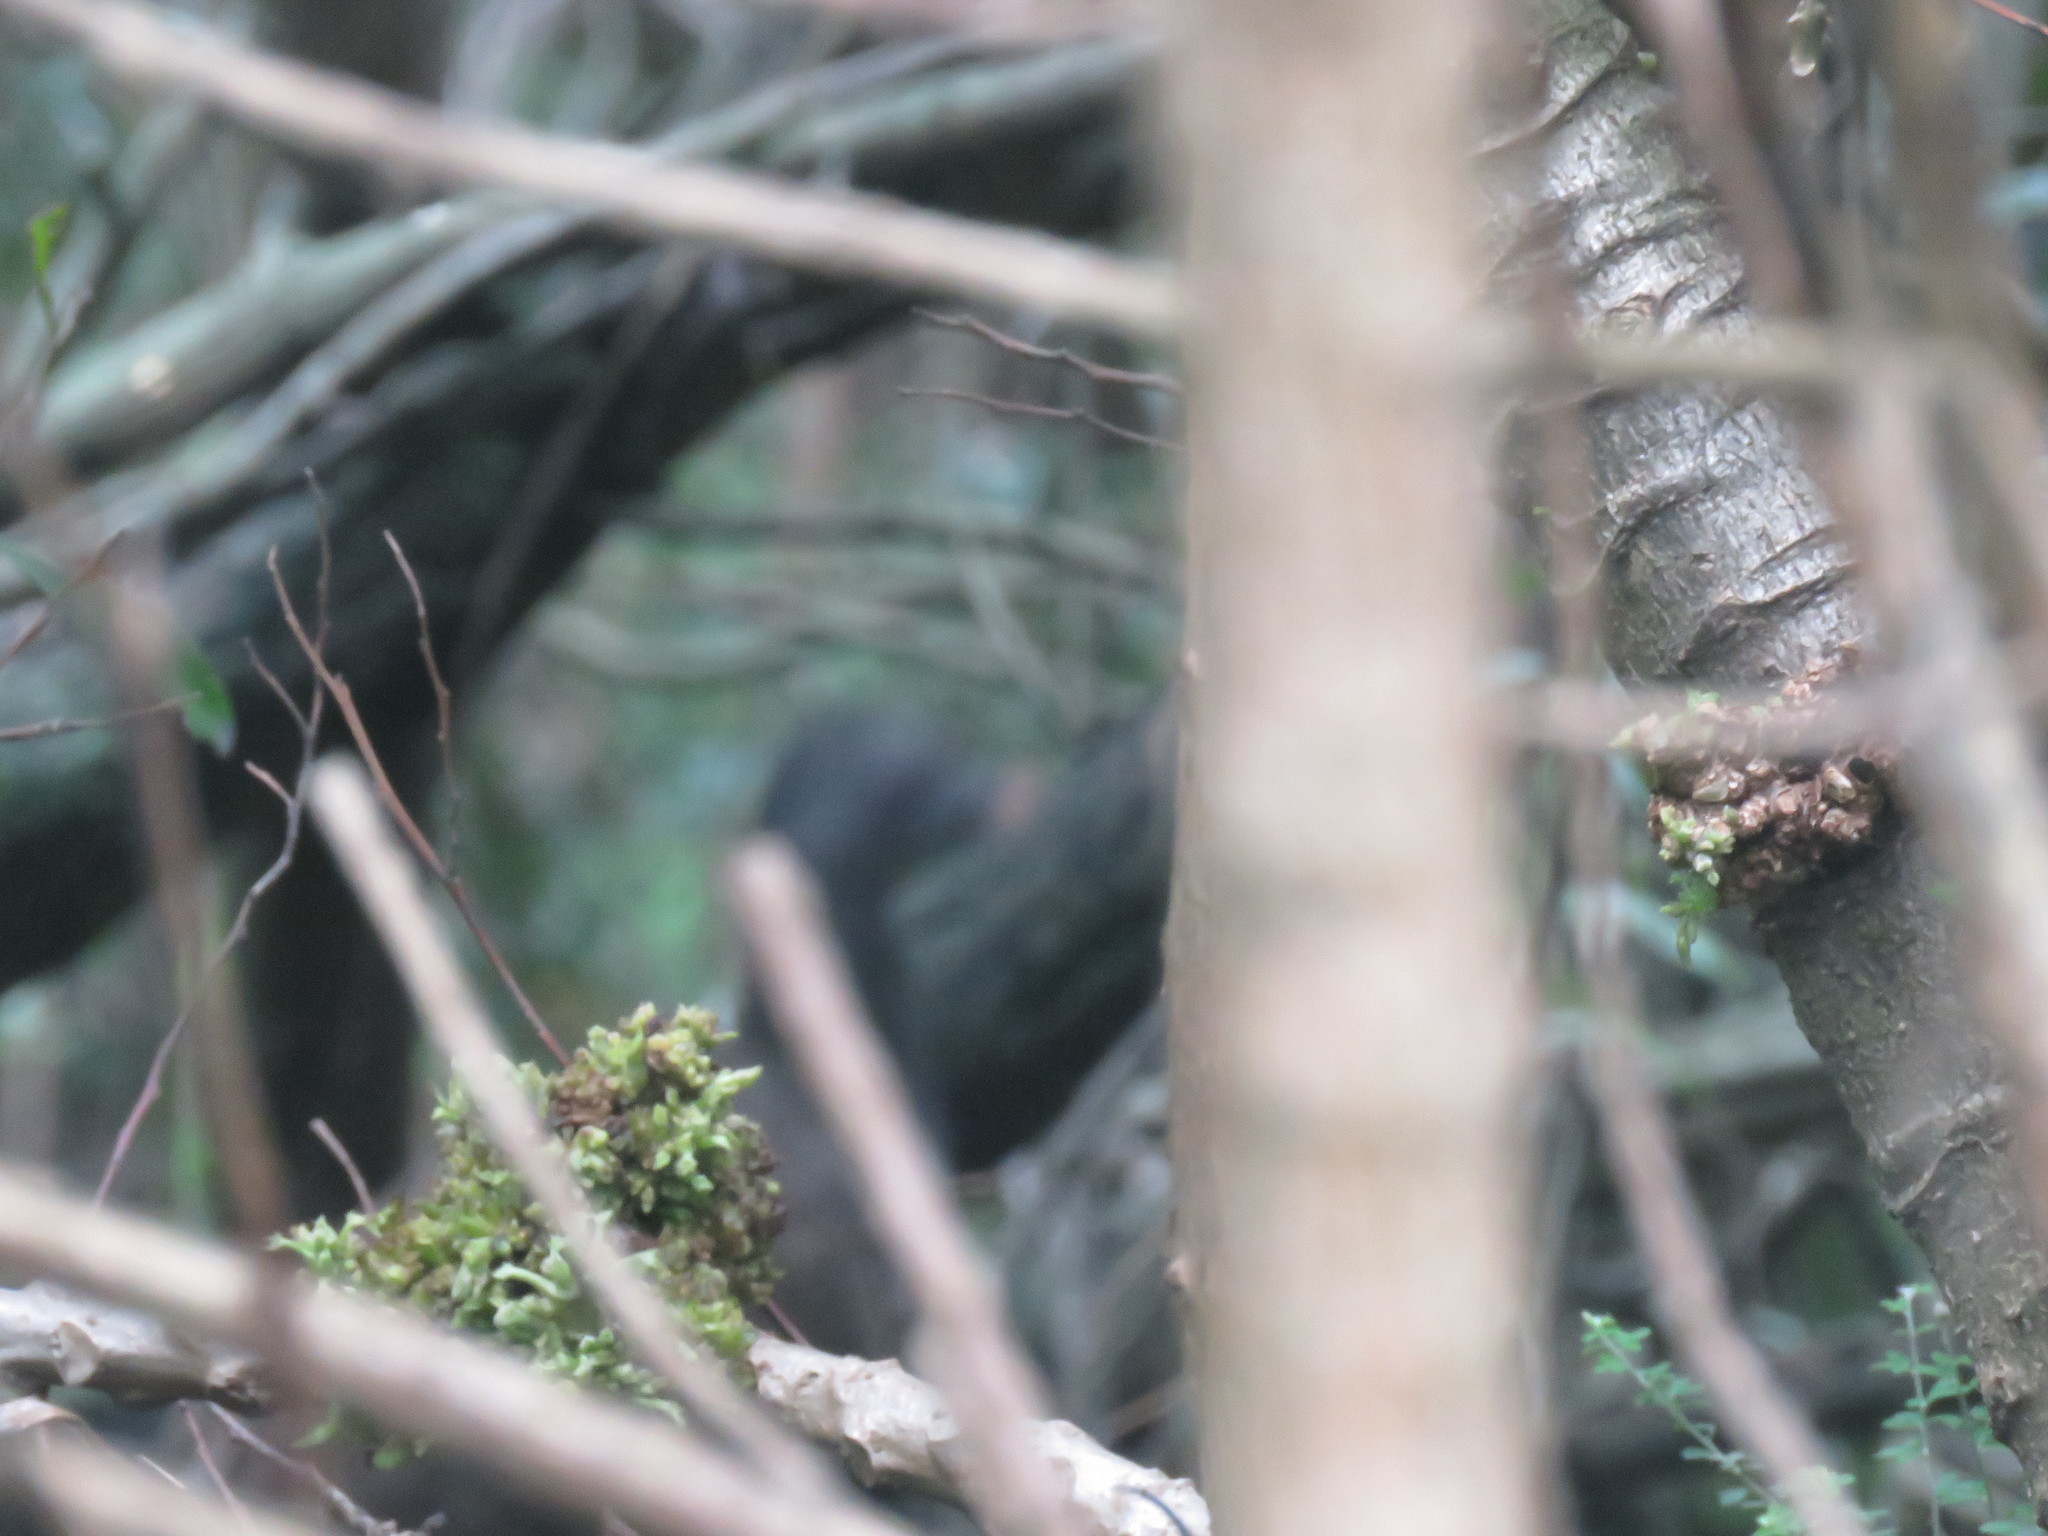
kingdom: Animalia
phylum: Chordata
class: Aves
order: Galliformes
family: Cracidae
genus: Penelope
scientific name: Penelope montagnii
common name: Andean guan
